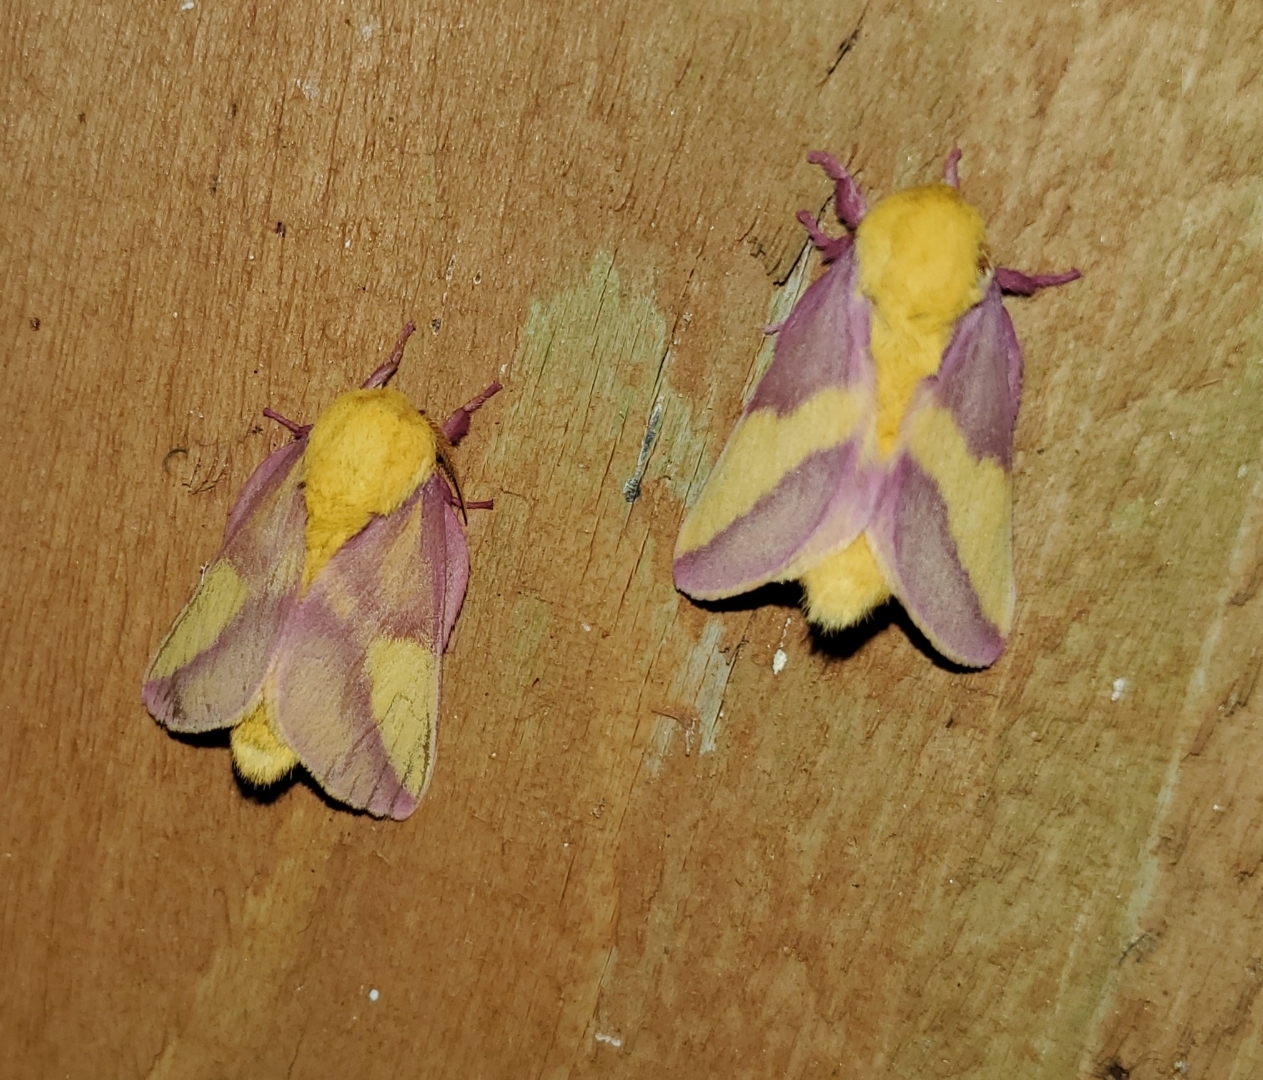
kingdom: Animalia
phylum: Arthropoda
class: Insecta
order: Lepidoptera
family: Saturniidae
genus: Dryocampa
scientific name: Dryocampa rubicunda
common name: Rosy maple moth
